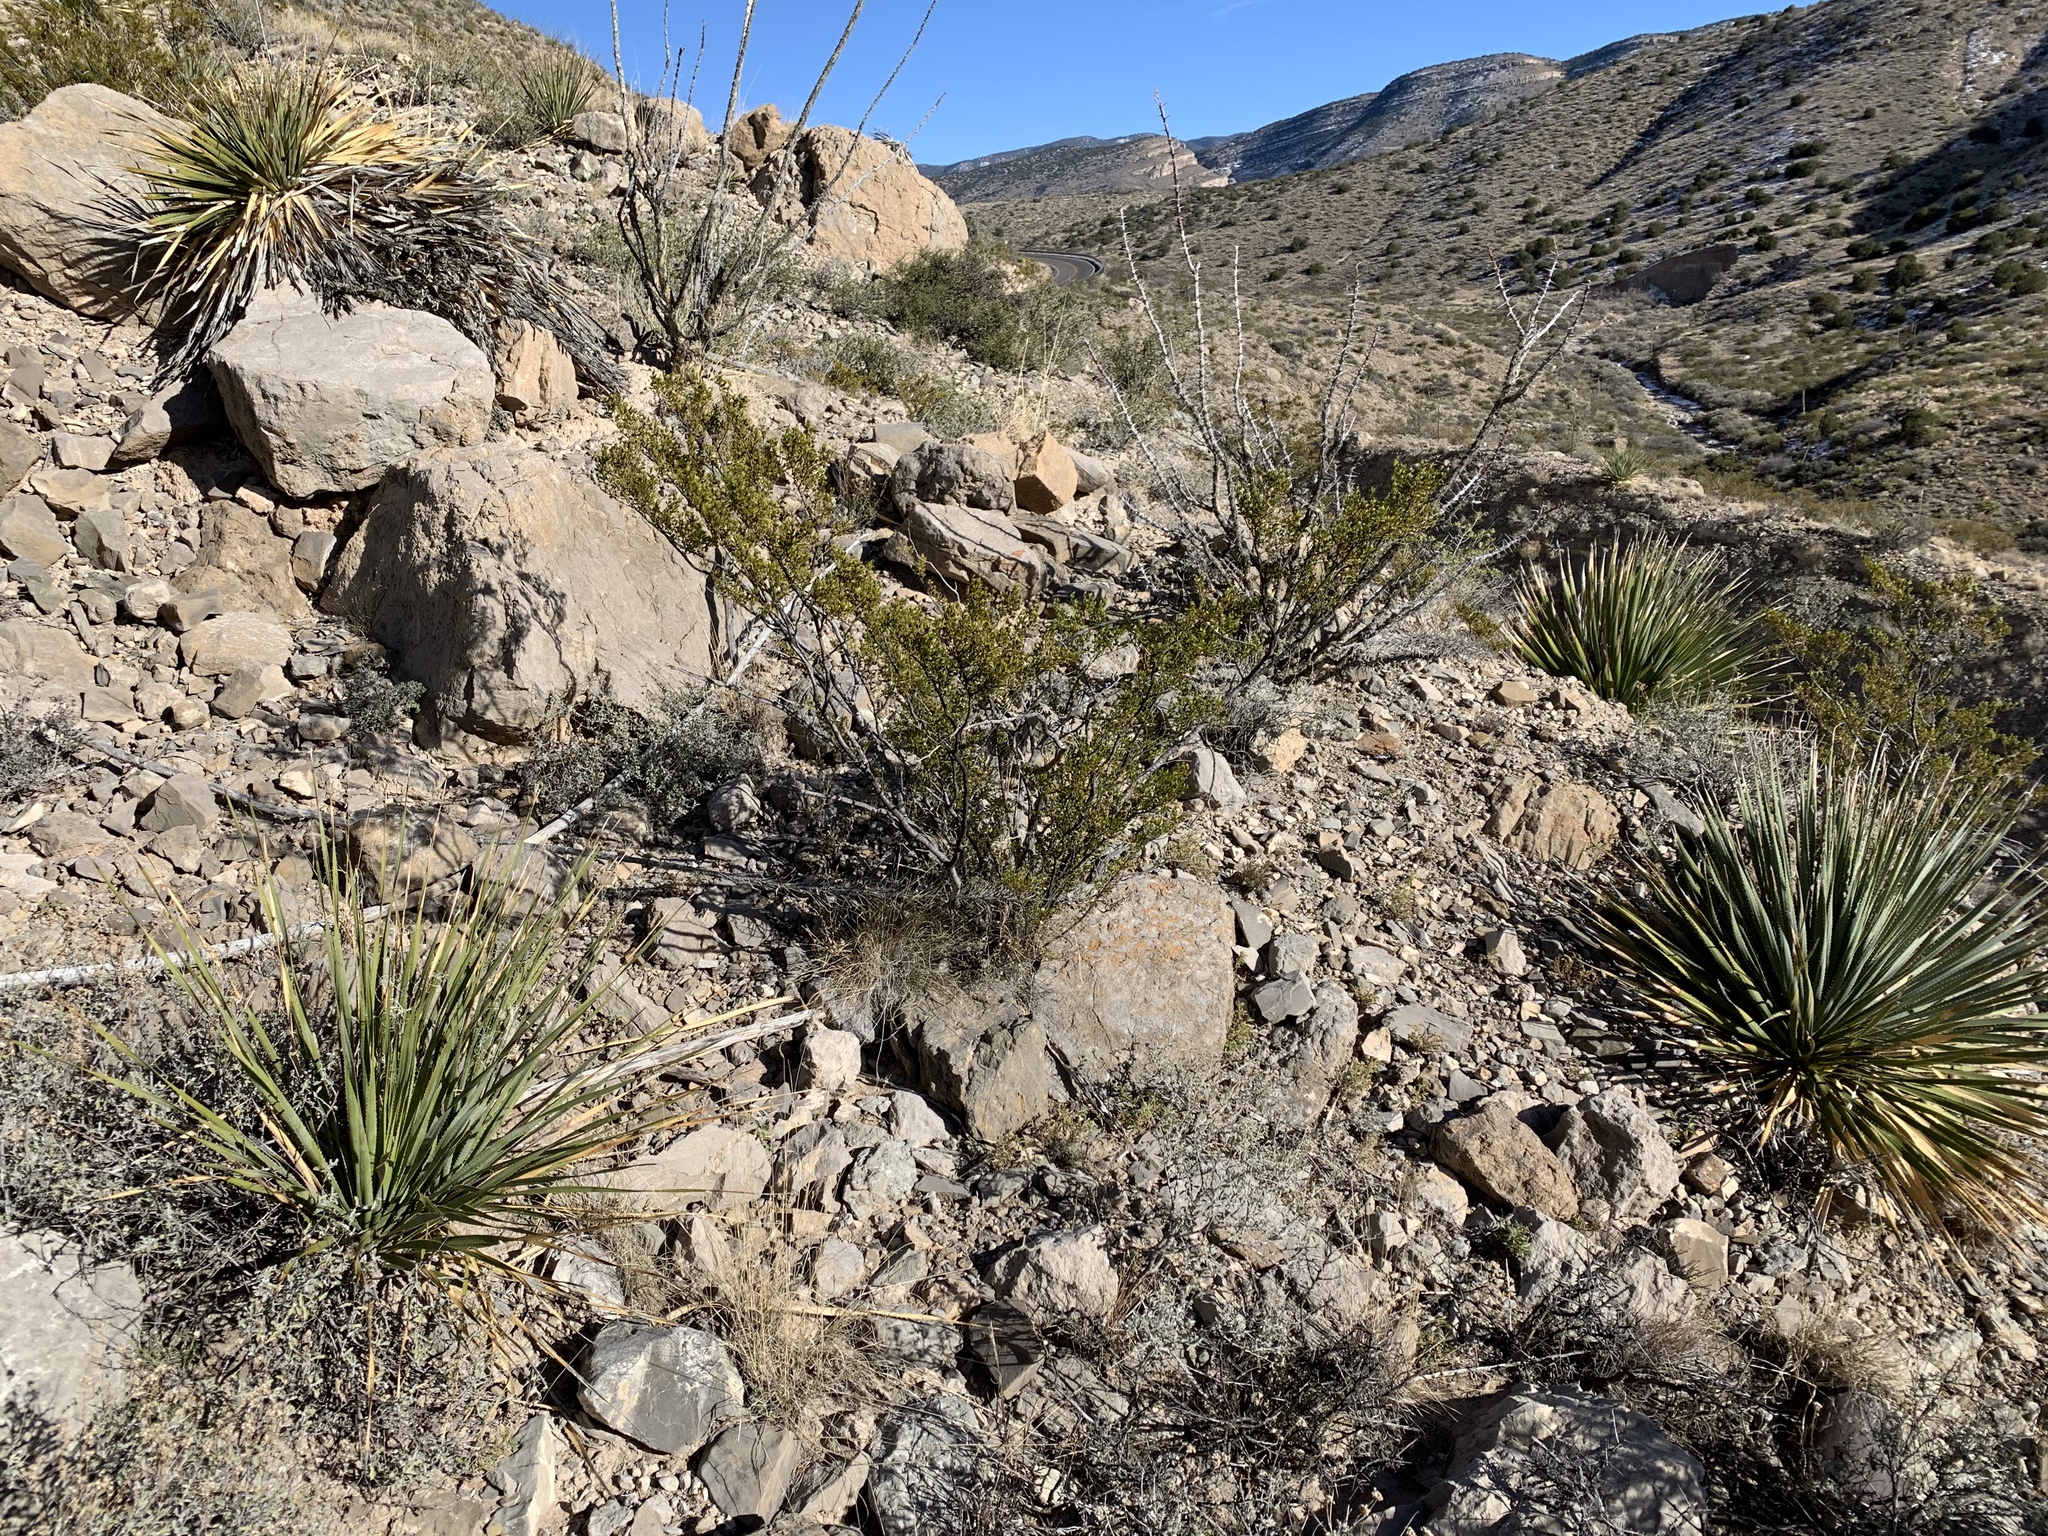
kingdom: Plantae
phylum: Tracheophyta
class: Magnoliopsida
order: Zygophyllales
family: Zygophyllaceae
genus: Larrea
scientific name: Larrea tridentata
